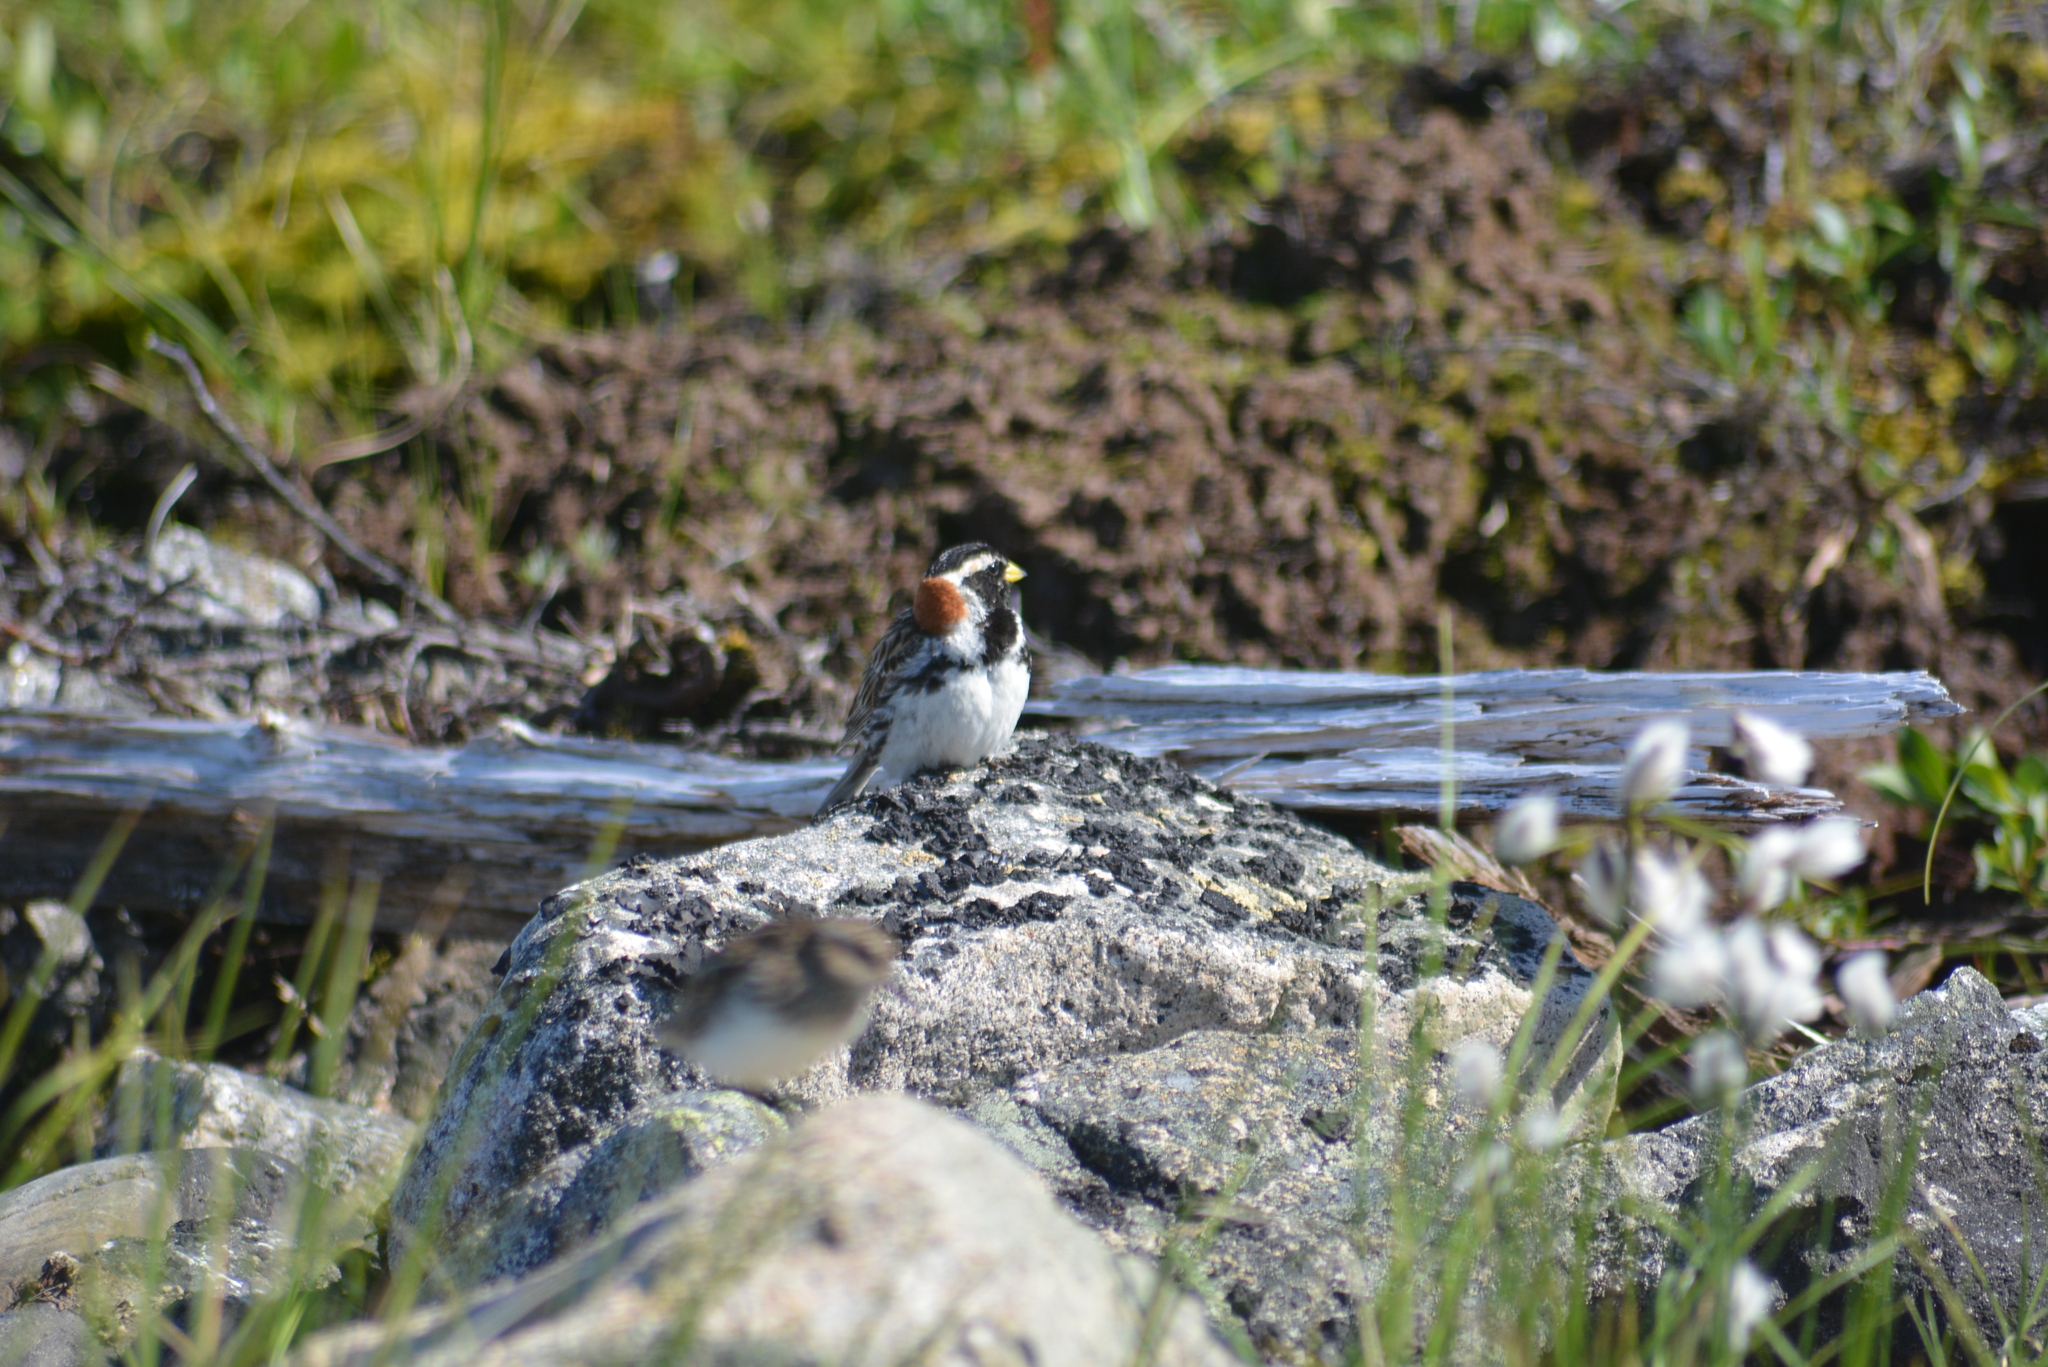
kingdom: Animalia
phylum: Chordata
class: Aves
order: Passeriformes
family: Calcariidae
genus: Calcarius
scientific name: Calcarius lapponicus
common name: Lapland longspur
